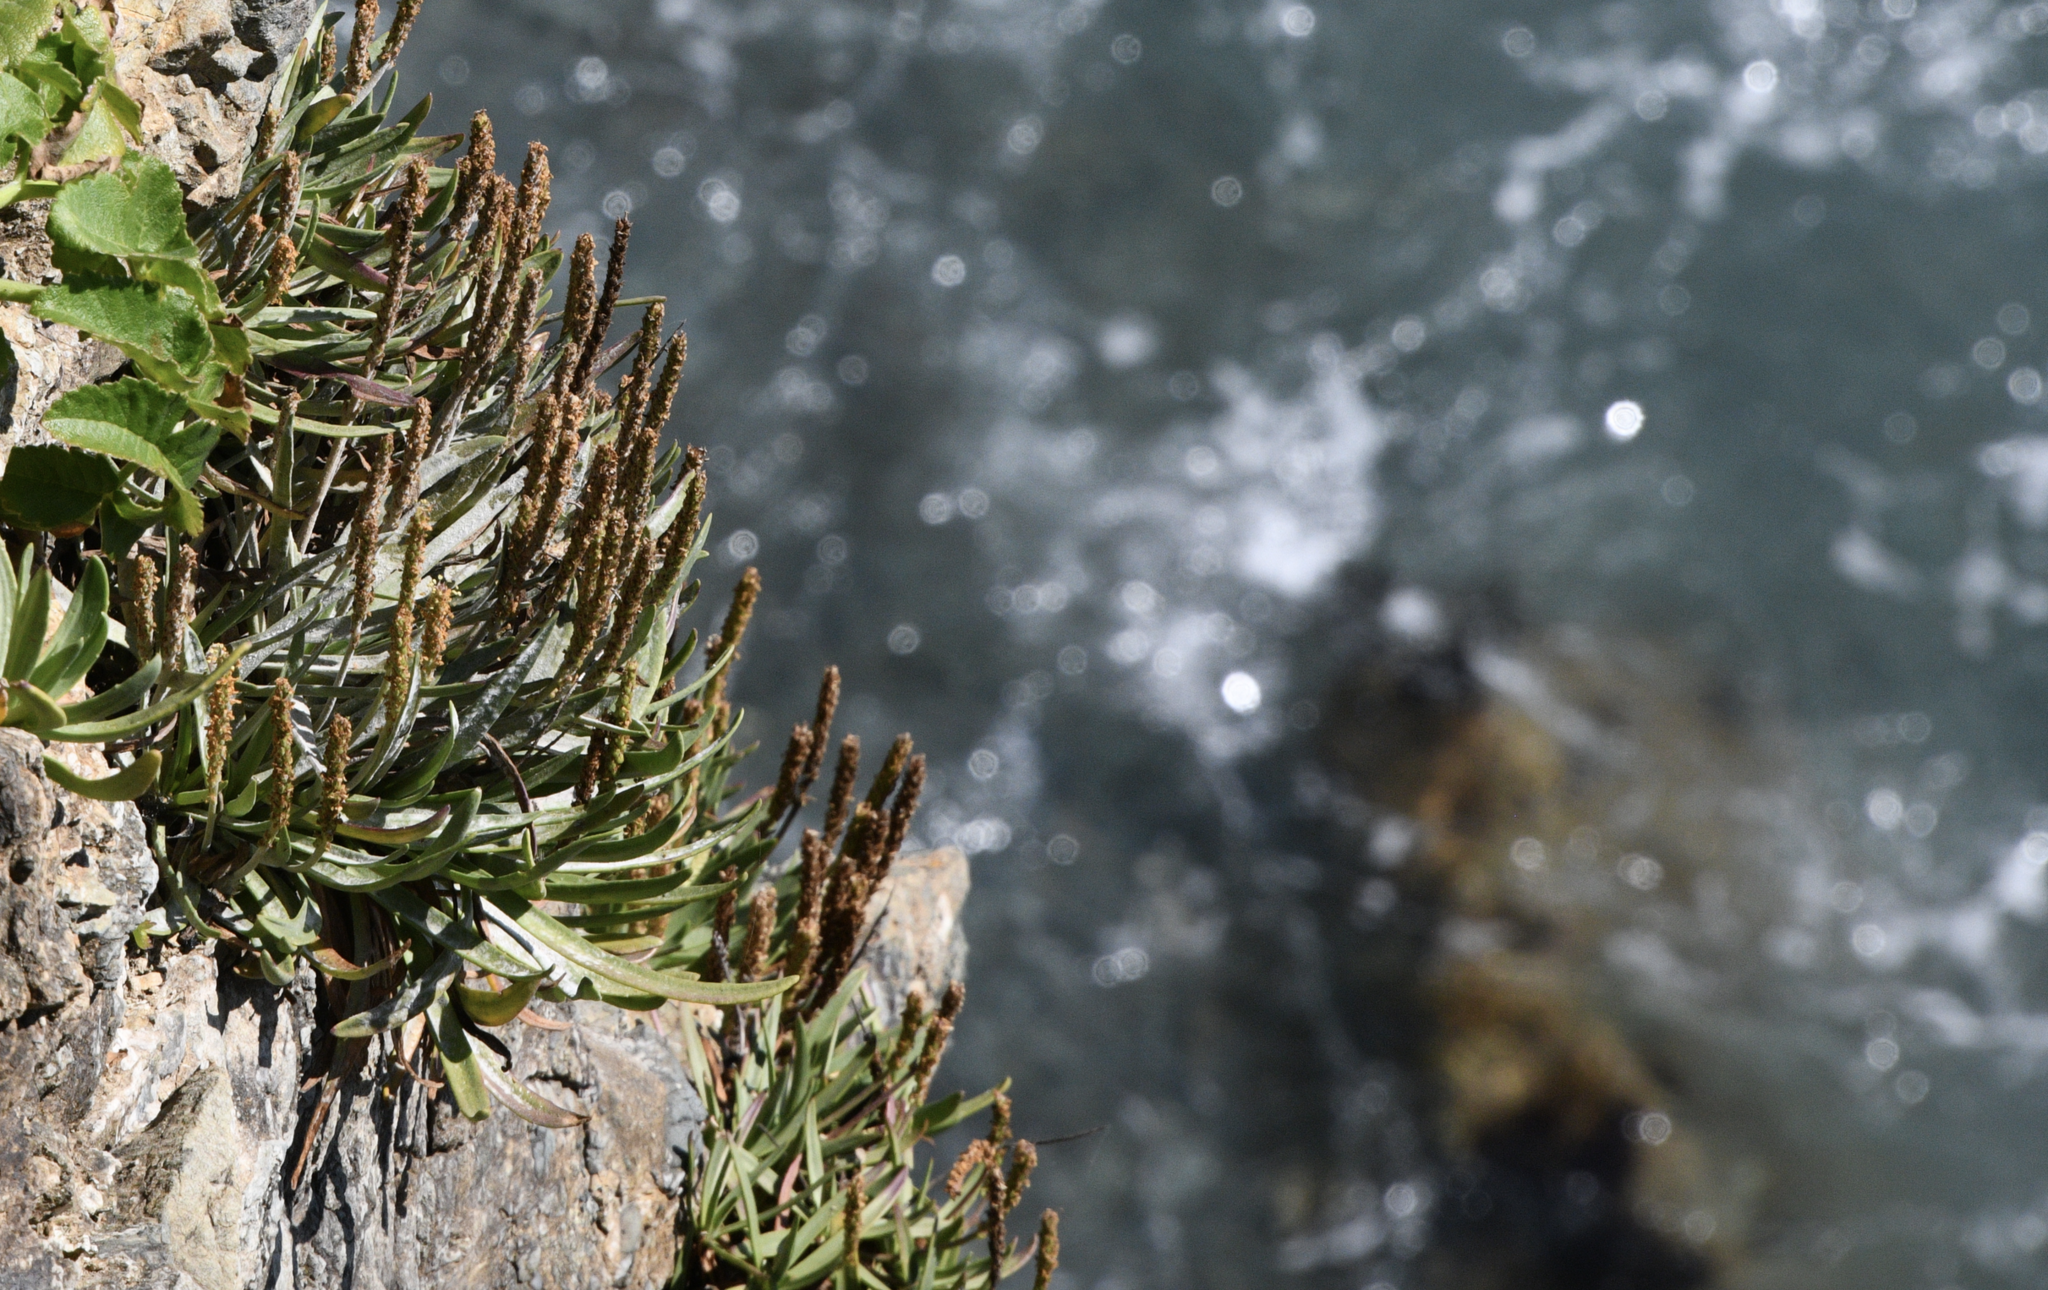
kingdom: Plantae
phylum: Tracheophyta
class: Magnoliopsida
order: Lamiales
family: Plantaginaceae
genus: Plantago
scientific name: Plantago maritima
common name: Sea plantain
